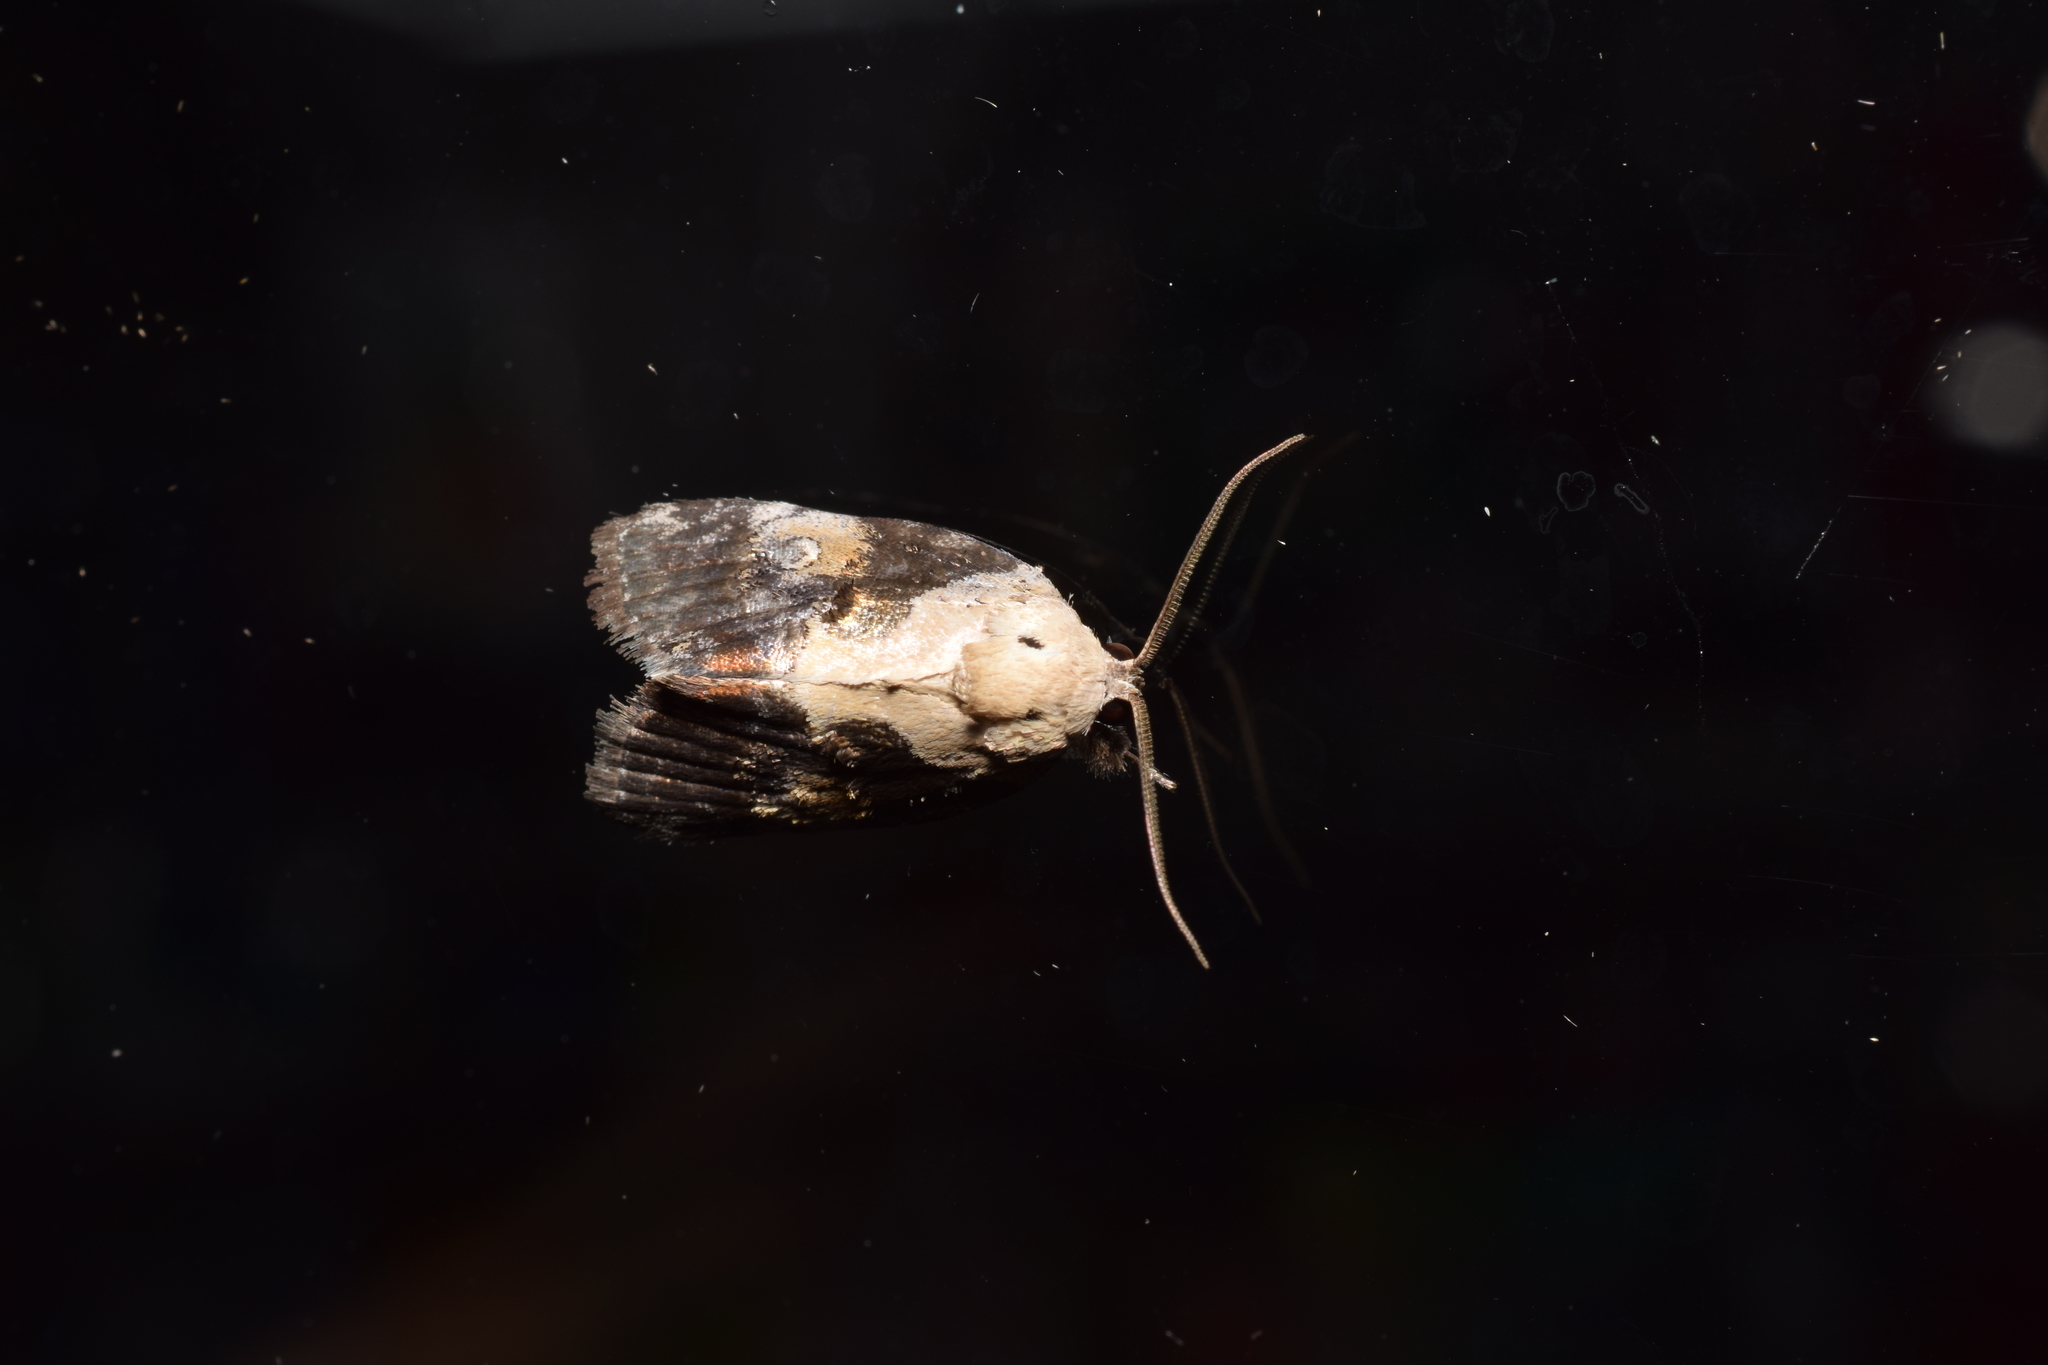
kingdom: Animalia
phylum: Arthropoda
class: Insecta
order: Lepidoptera
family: Nolidae
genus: Negritothripa
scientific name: Negritothripa hampsoni
